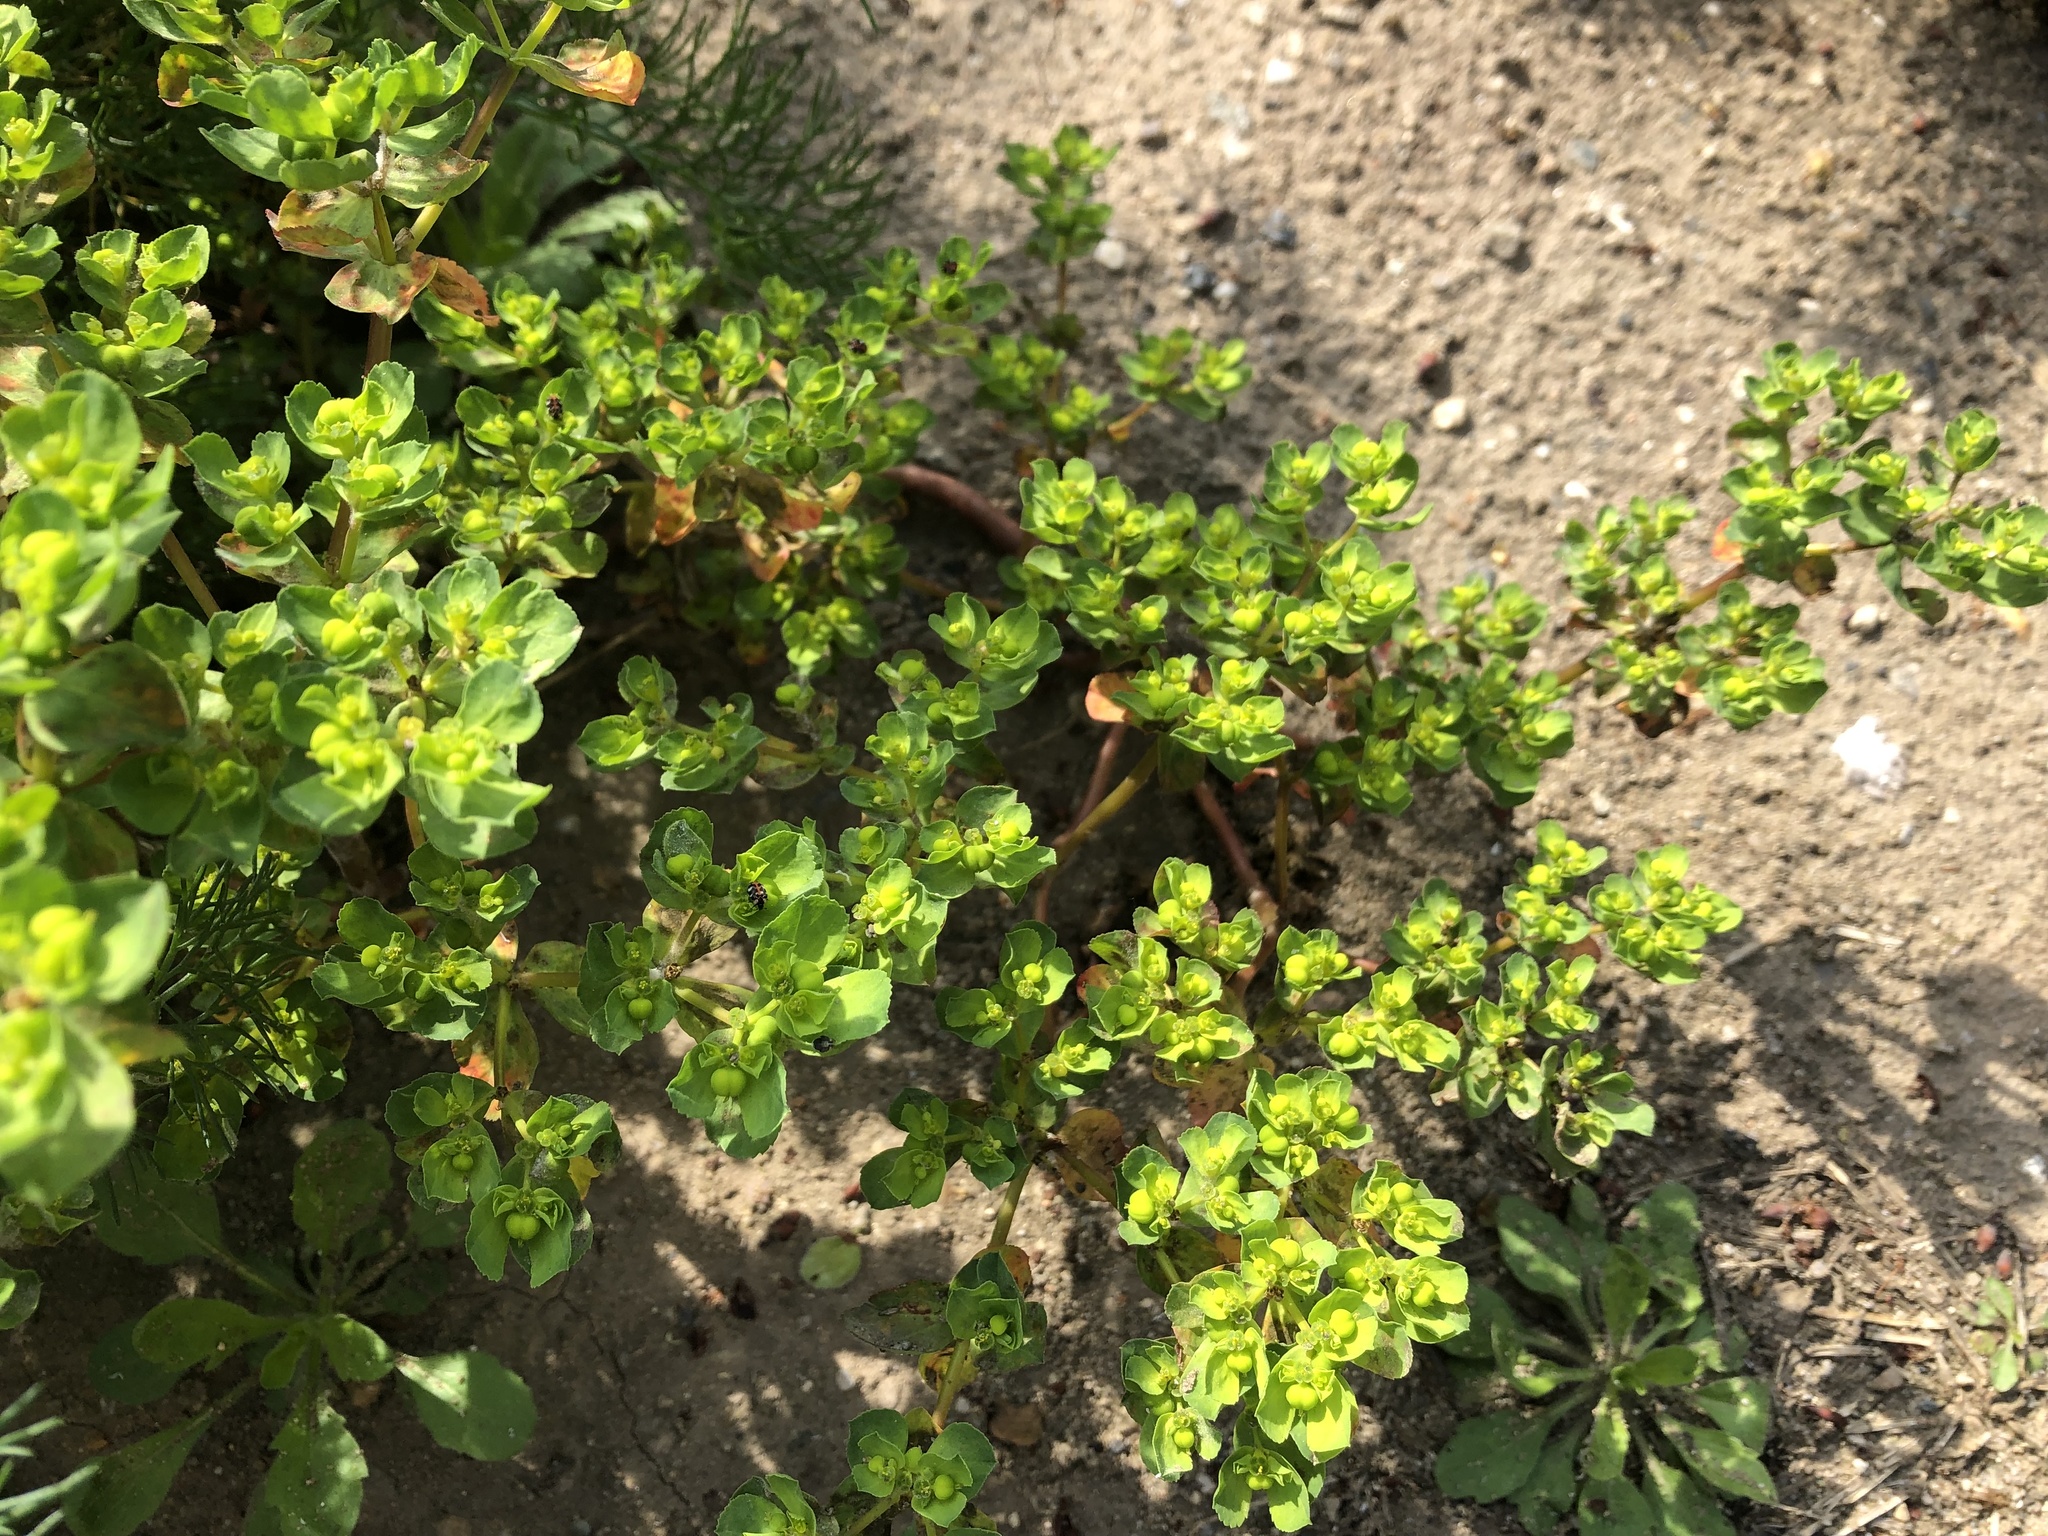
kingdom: Plantae
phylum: Tracheophyta
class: Magnoliopsida
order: Malpighiales
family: Euphorbiaceae
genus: Euphorbia
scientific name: Euphorbia helioscopia
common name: Sun spurge
